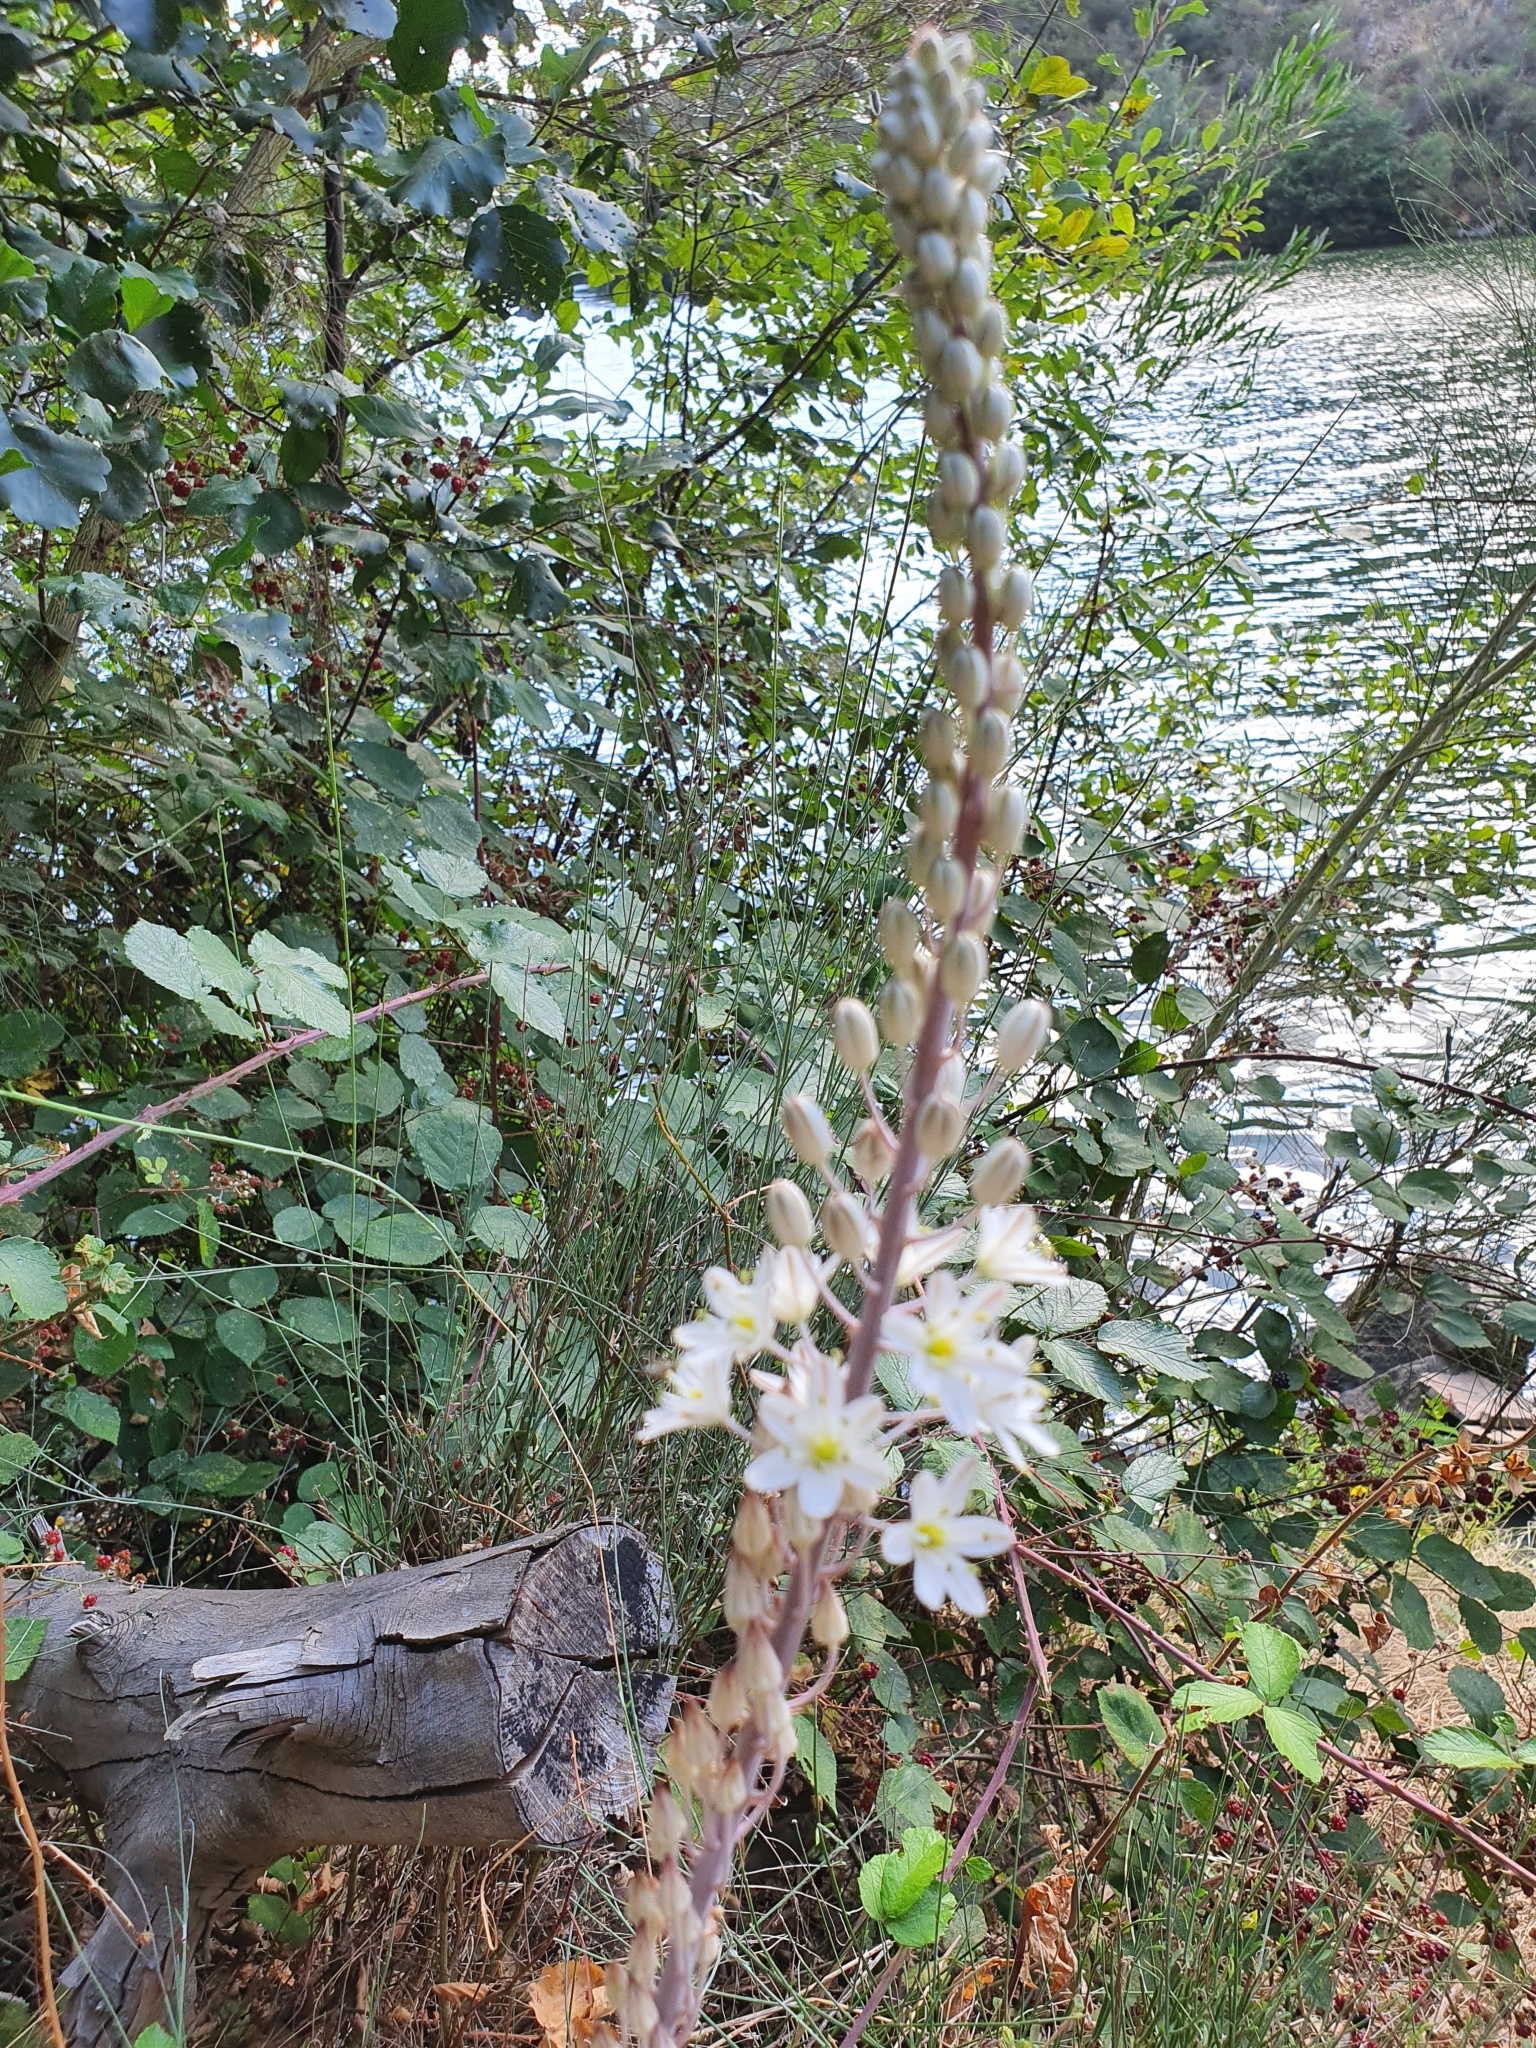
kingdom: Plantae
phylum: Tracheophyta
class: Liliopsida
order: Asparagales
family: Asparagaceae
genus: Drimia
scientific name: Drimia maritima
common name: Maritime squill
